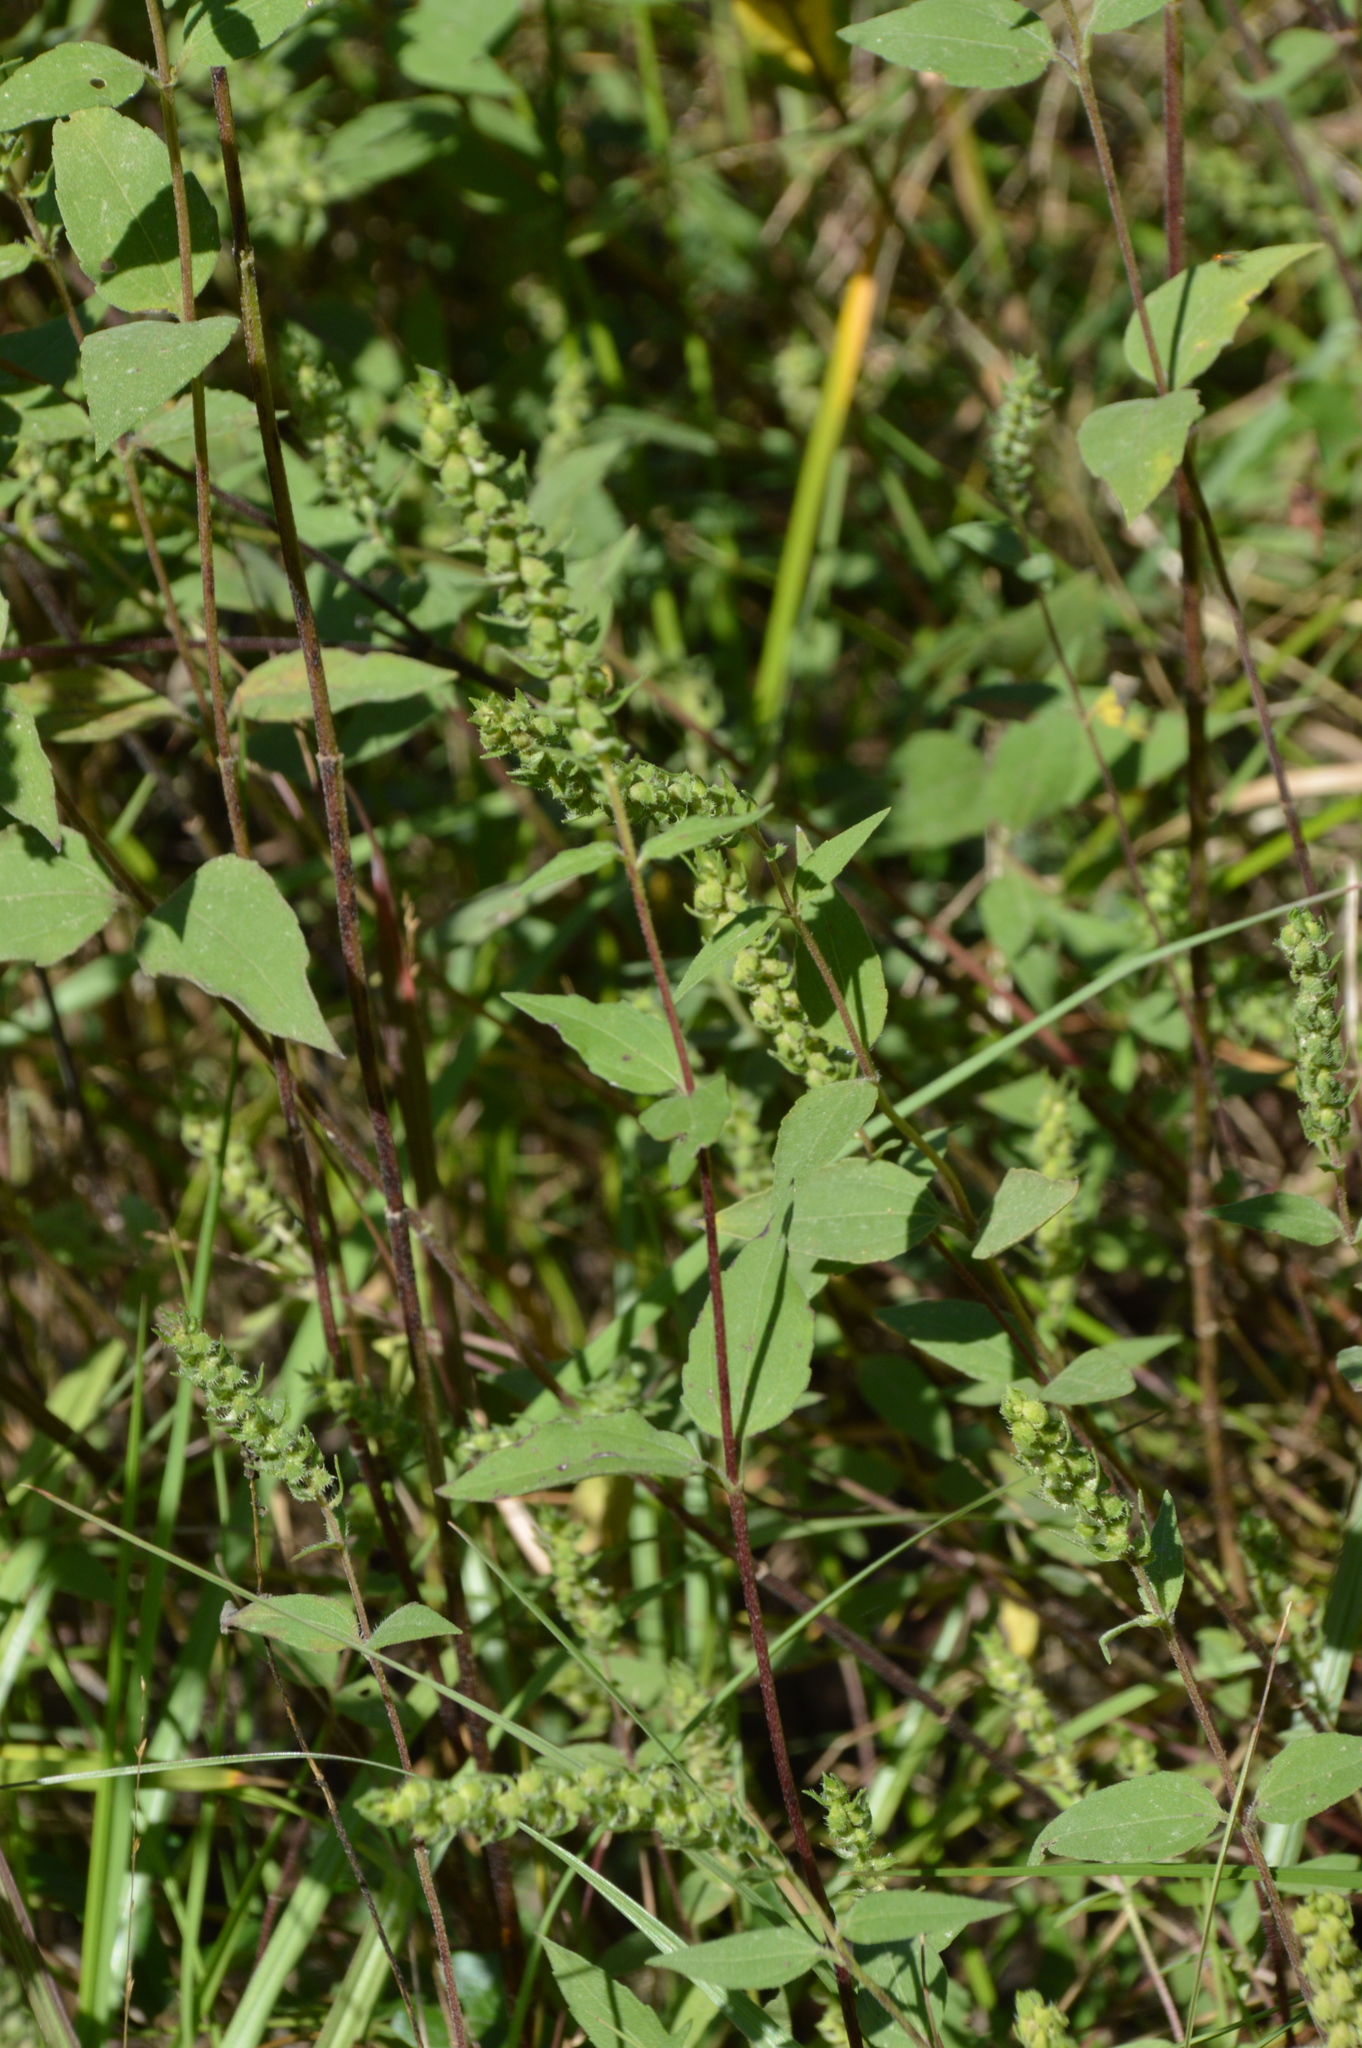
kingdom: Plantae
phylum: Tracheophyta
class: Magnoliopsida
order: Asterales
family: Asteraceae
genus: Iva
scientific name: Iva annua
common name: Marsh-elder
